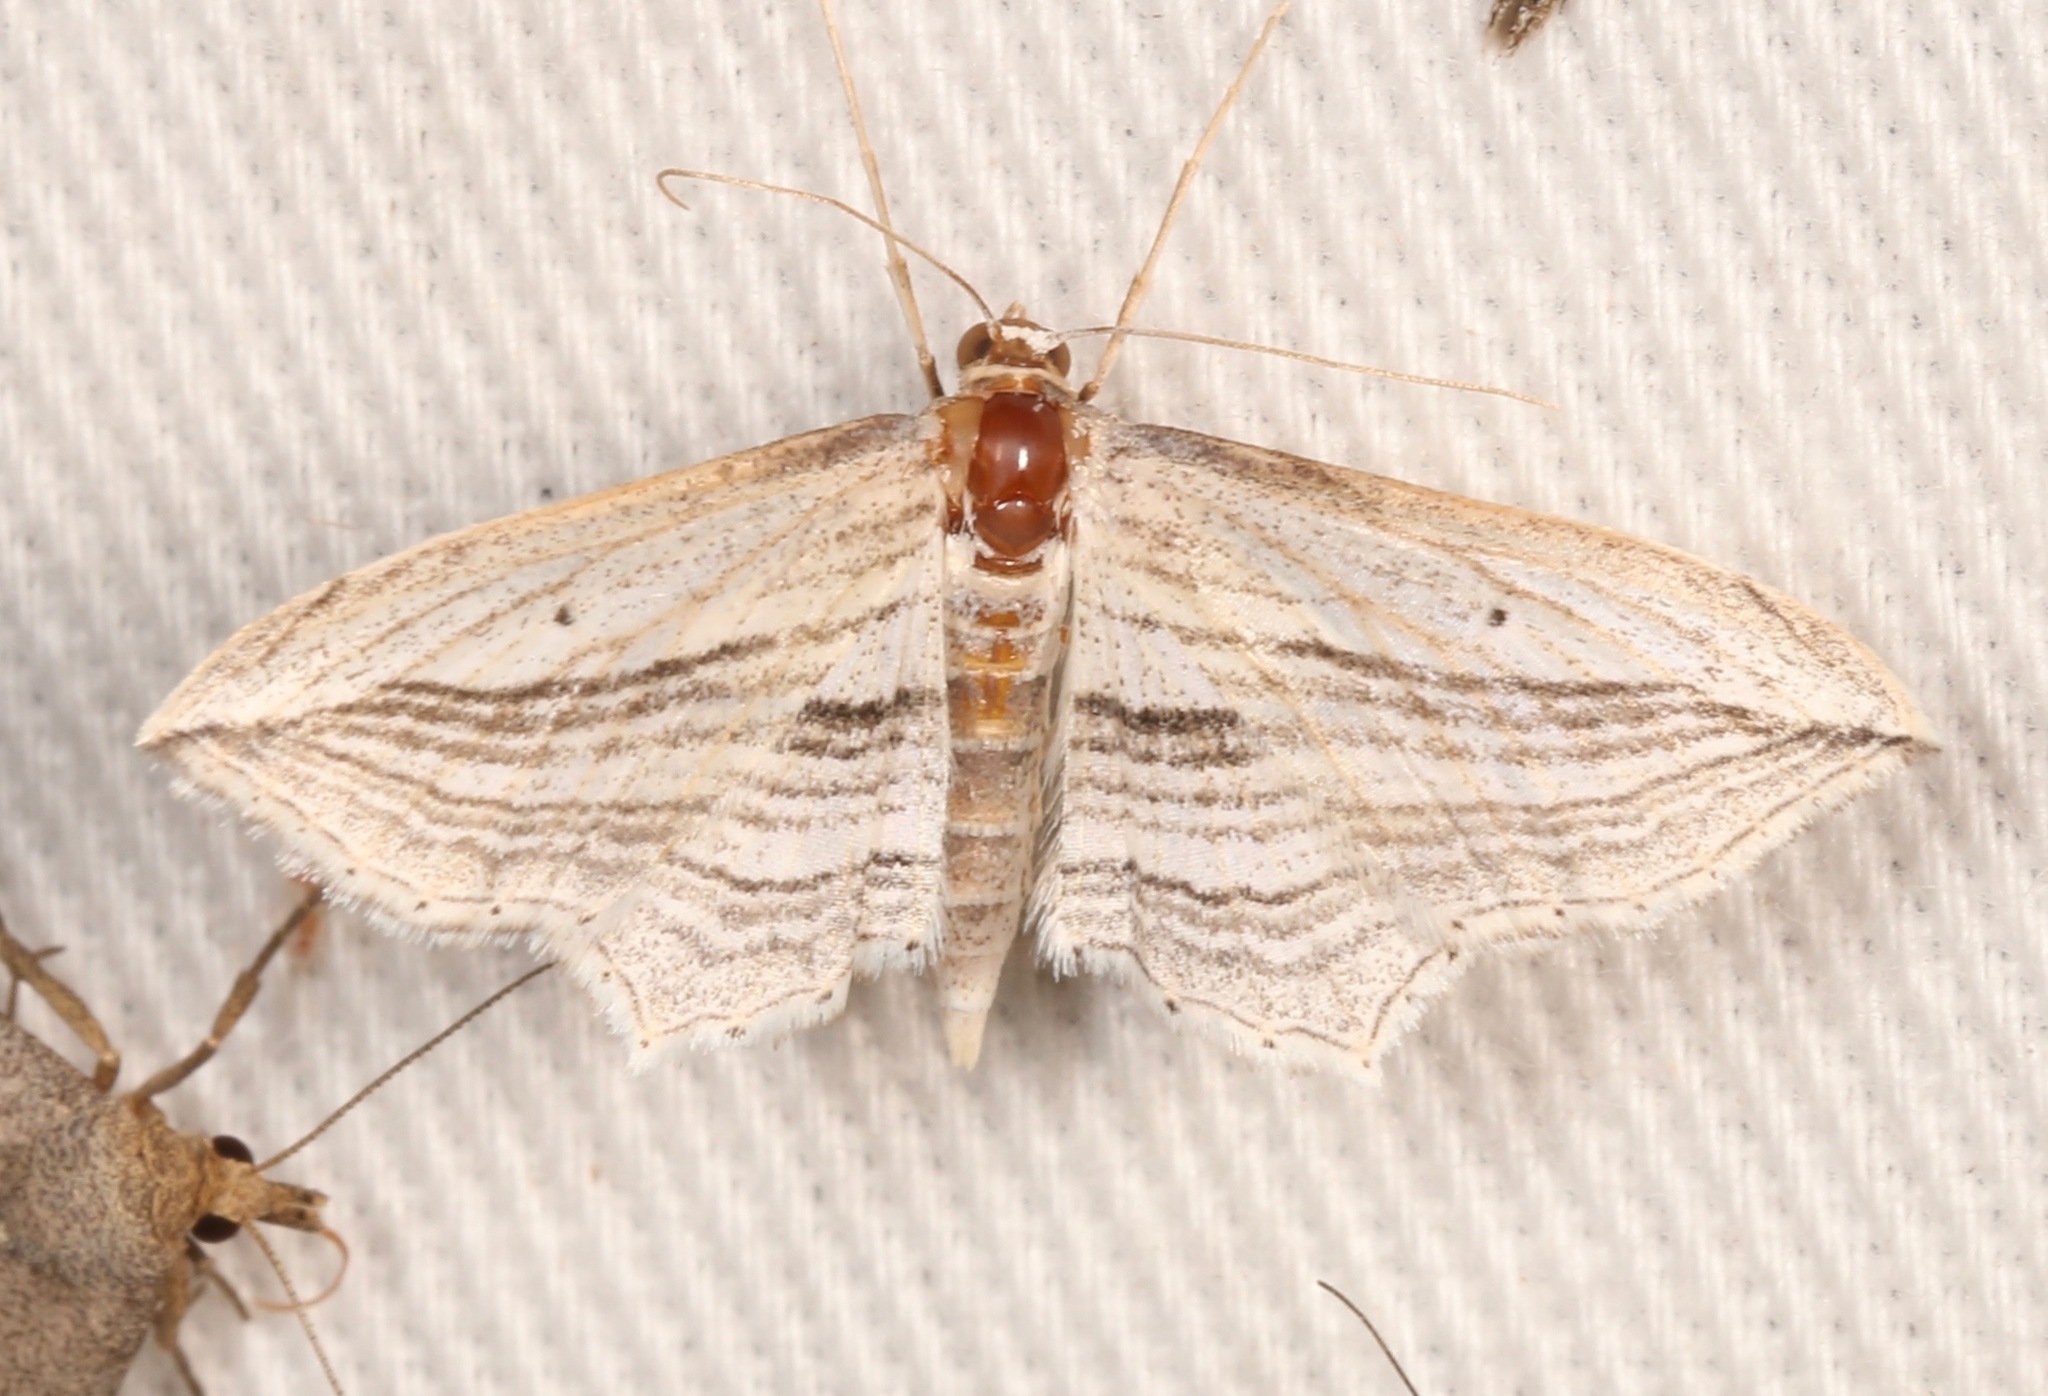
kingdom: Animalia
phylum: Arthropoda
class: Insecta
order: Lepidoptera
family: Geometridae
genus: Arcobara
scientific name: Arcobara multilineata
